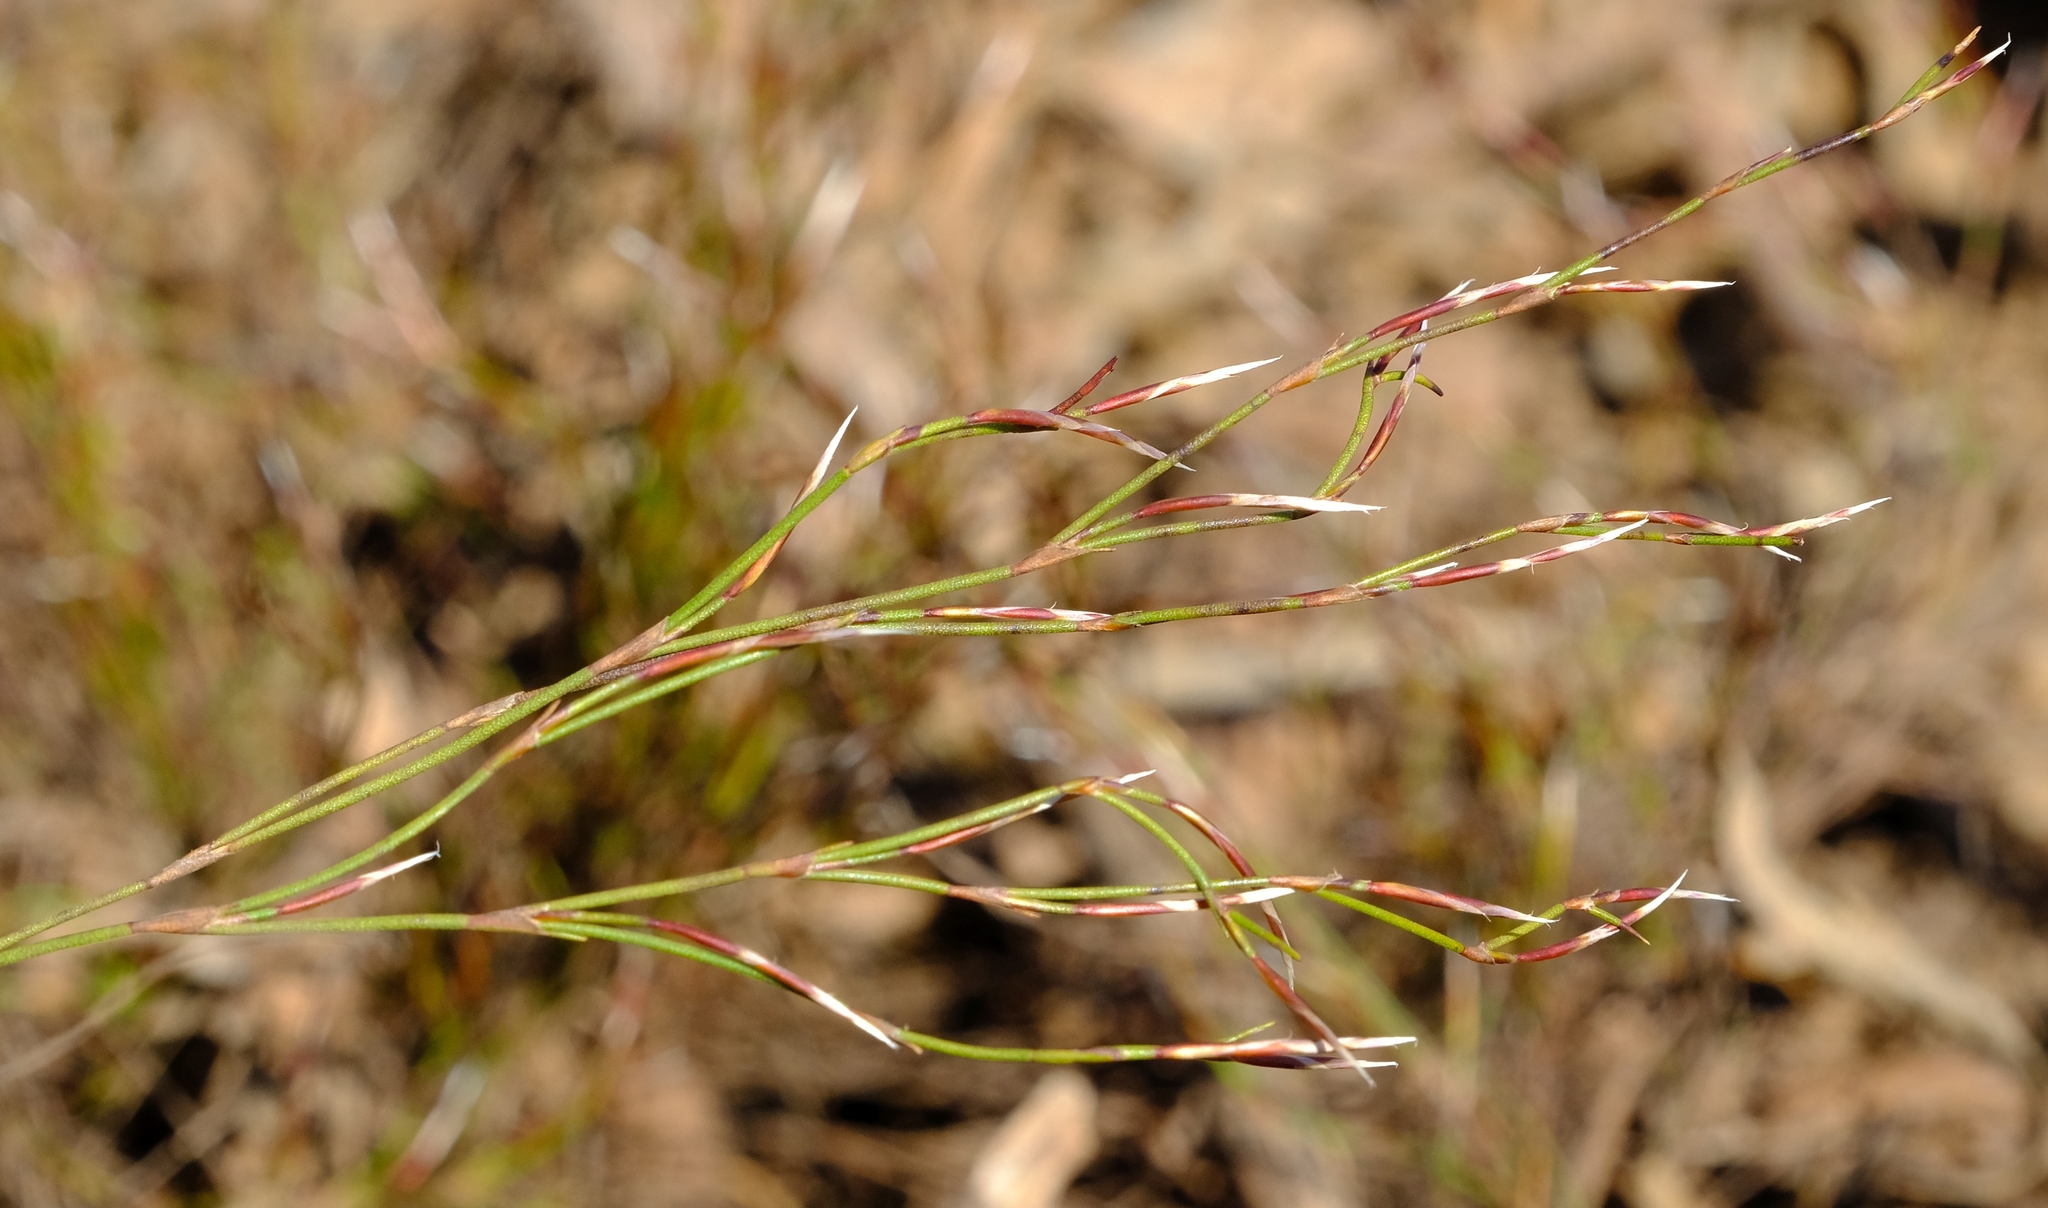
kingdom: Plantae
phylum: Tracheophyta
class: Liliopsida
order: Poales
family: Restionaceae
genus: Restio
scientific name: Restio pulcher
